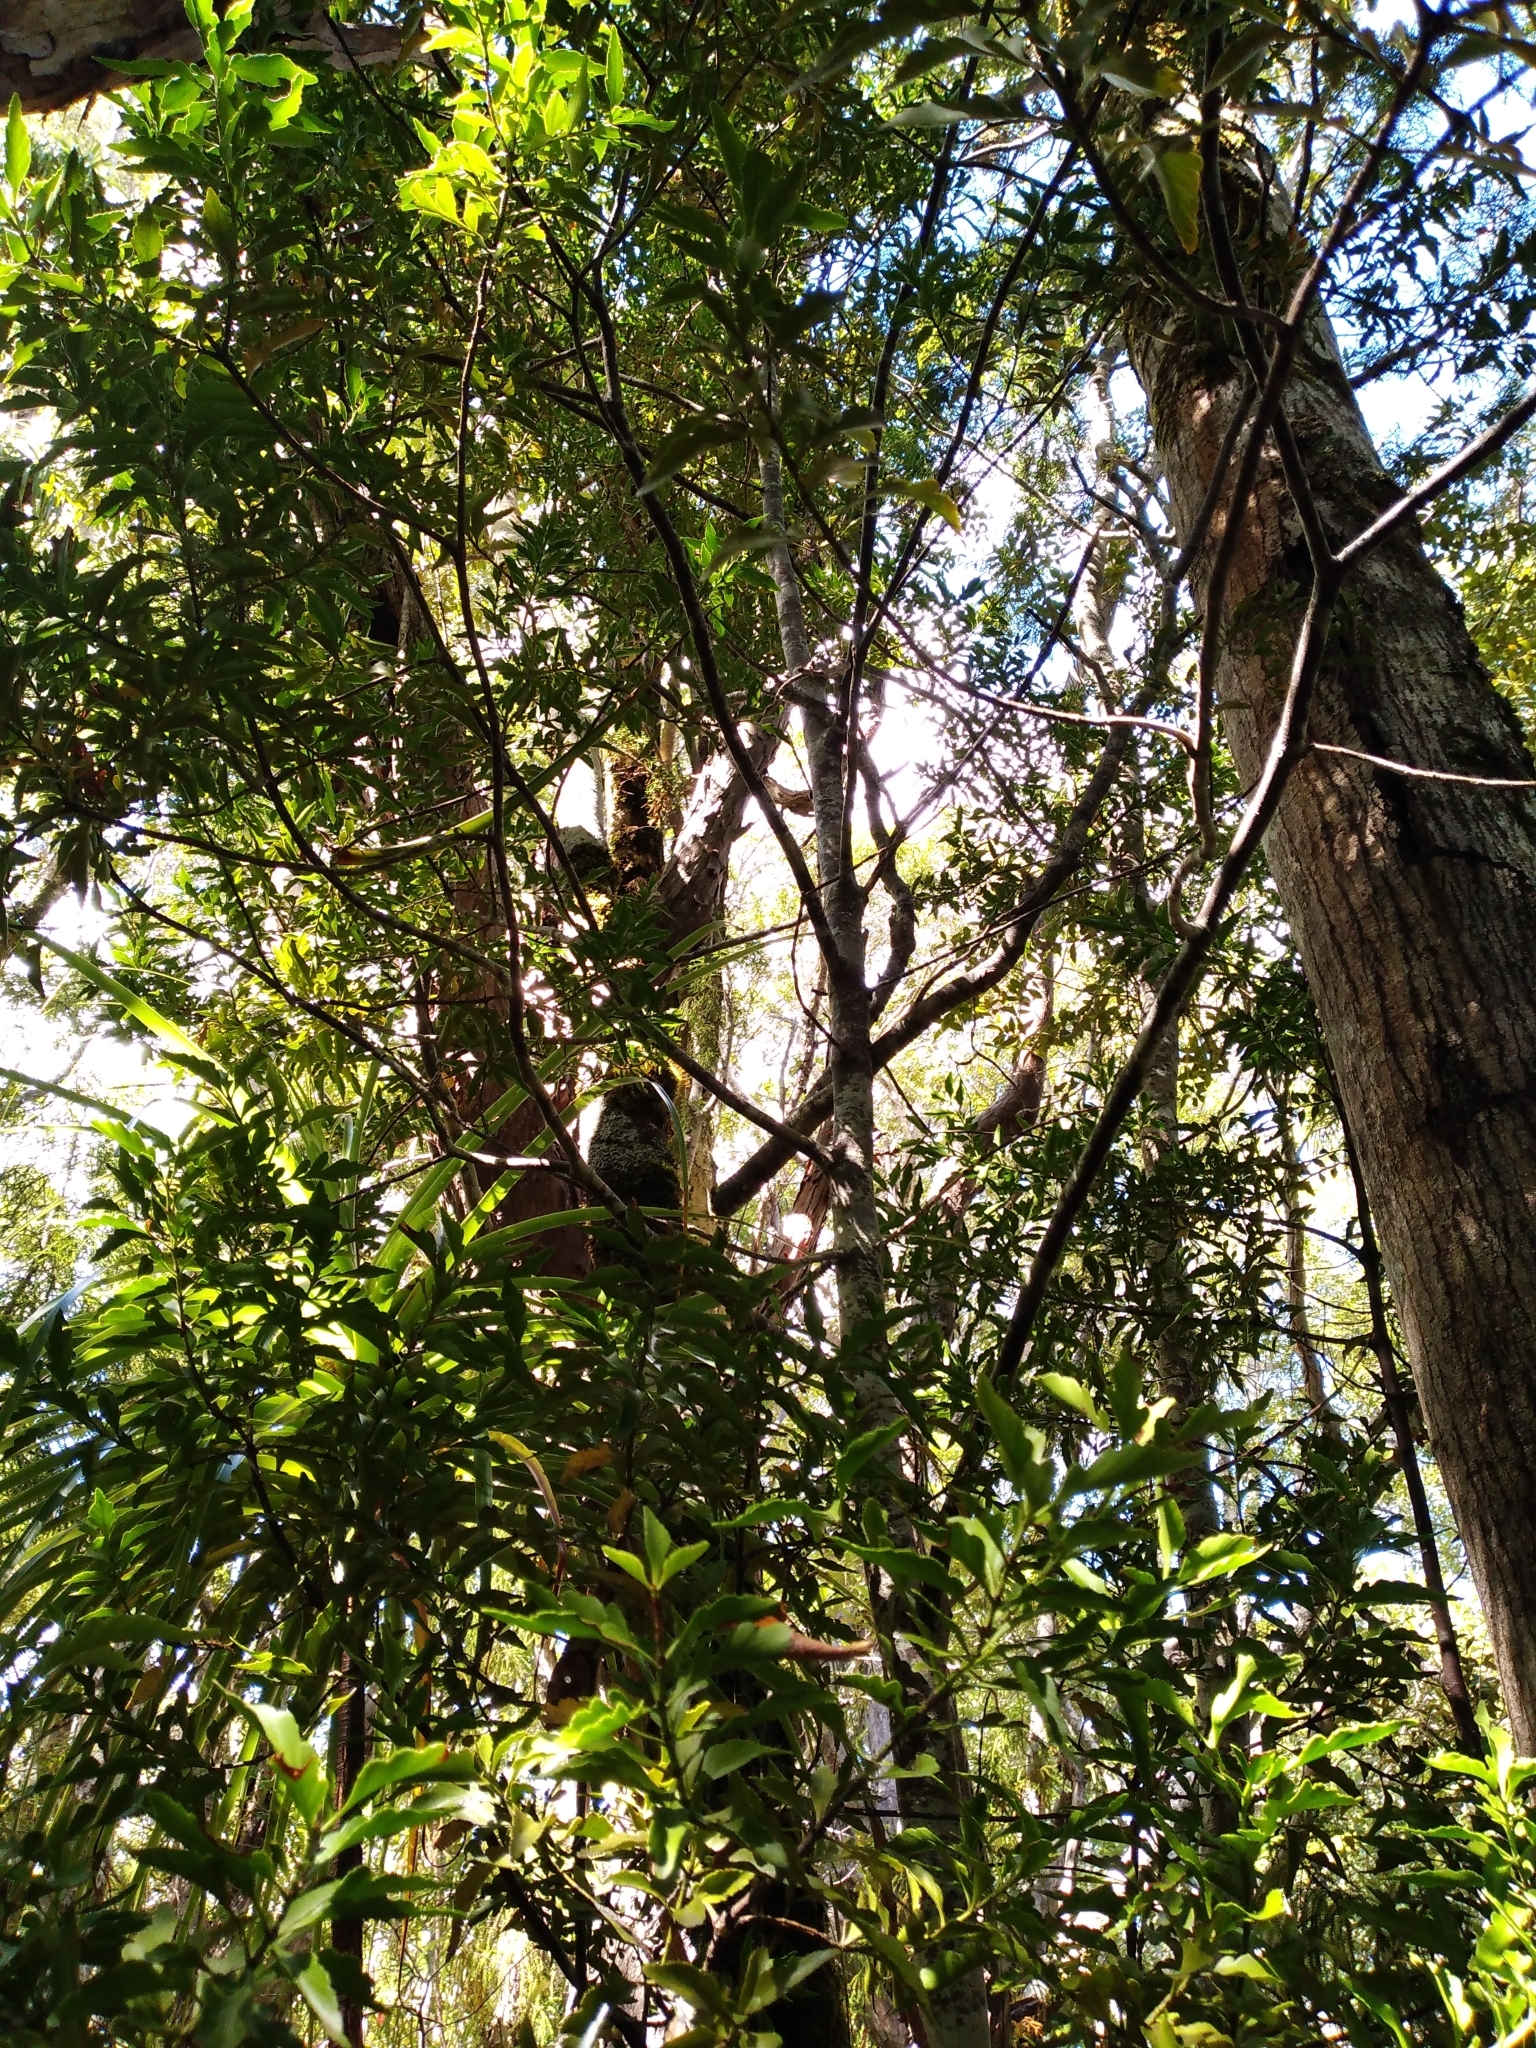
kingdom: Plantae
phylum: Tracheophyta
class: Pinopsida
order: Pinales
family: Phyllocladaceae
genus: Phyllocladus
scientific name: Phyllocladus trichomanoides
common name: Celery pine
